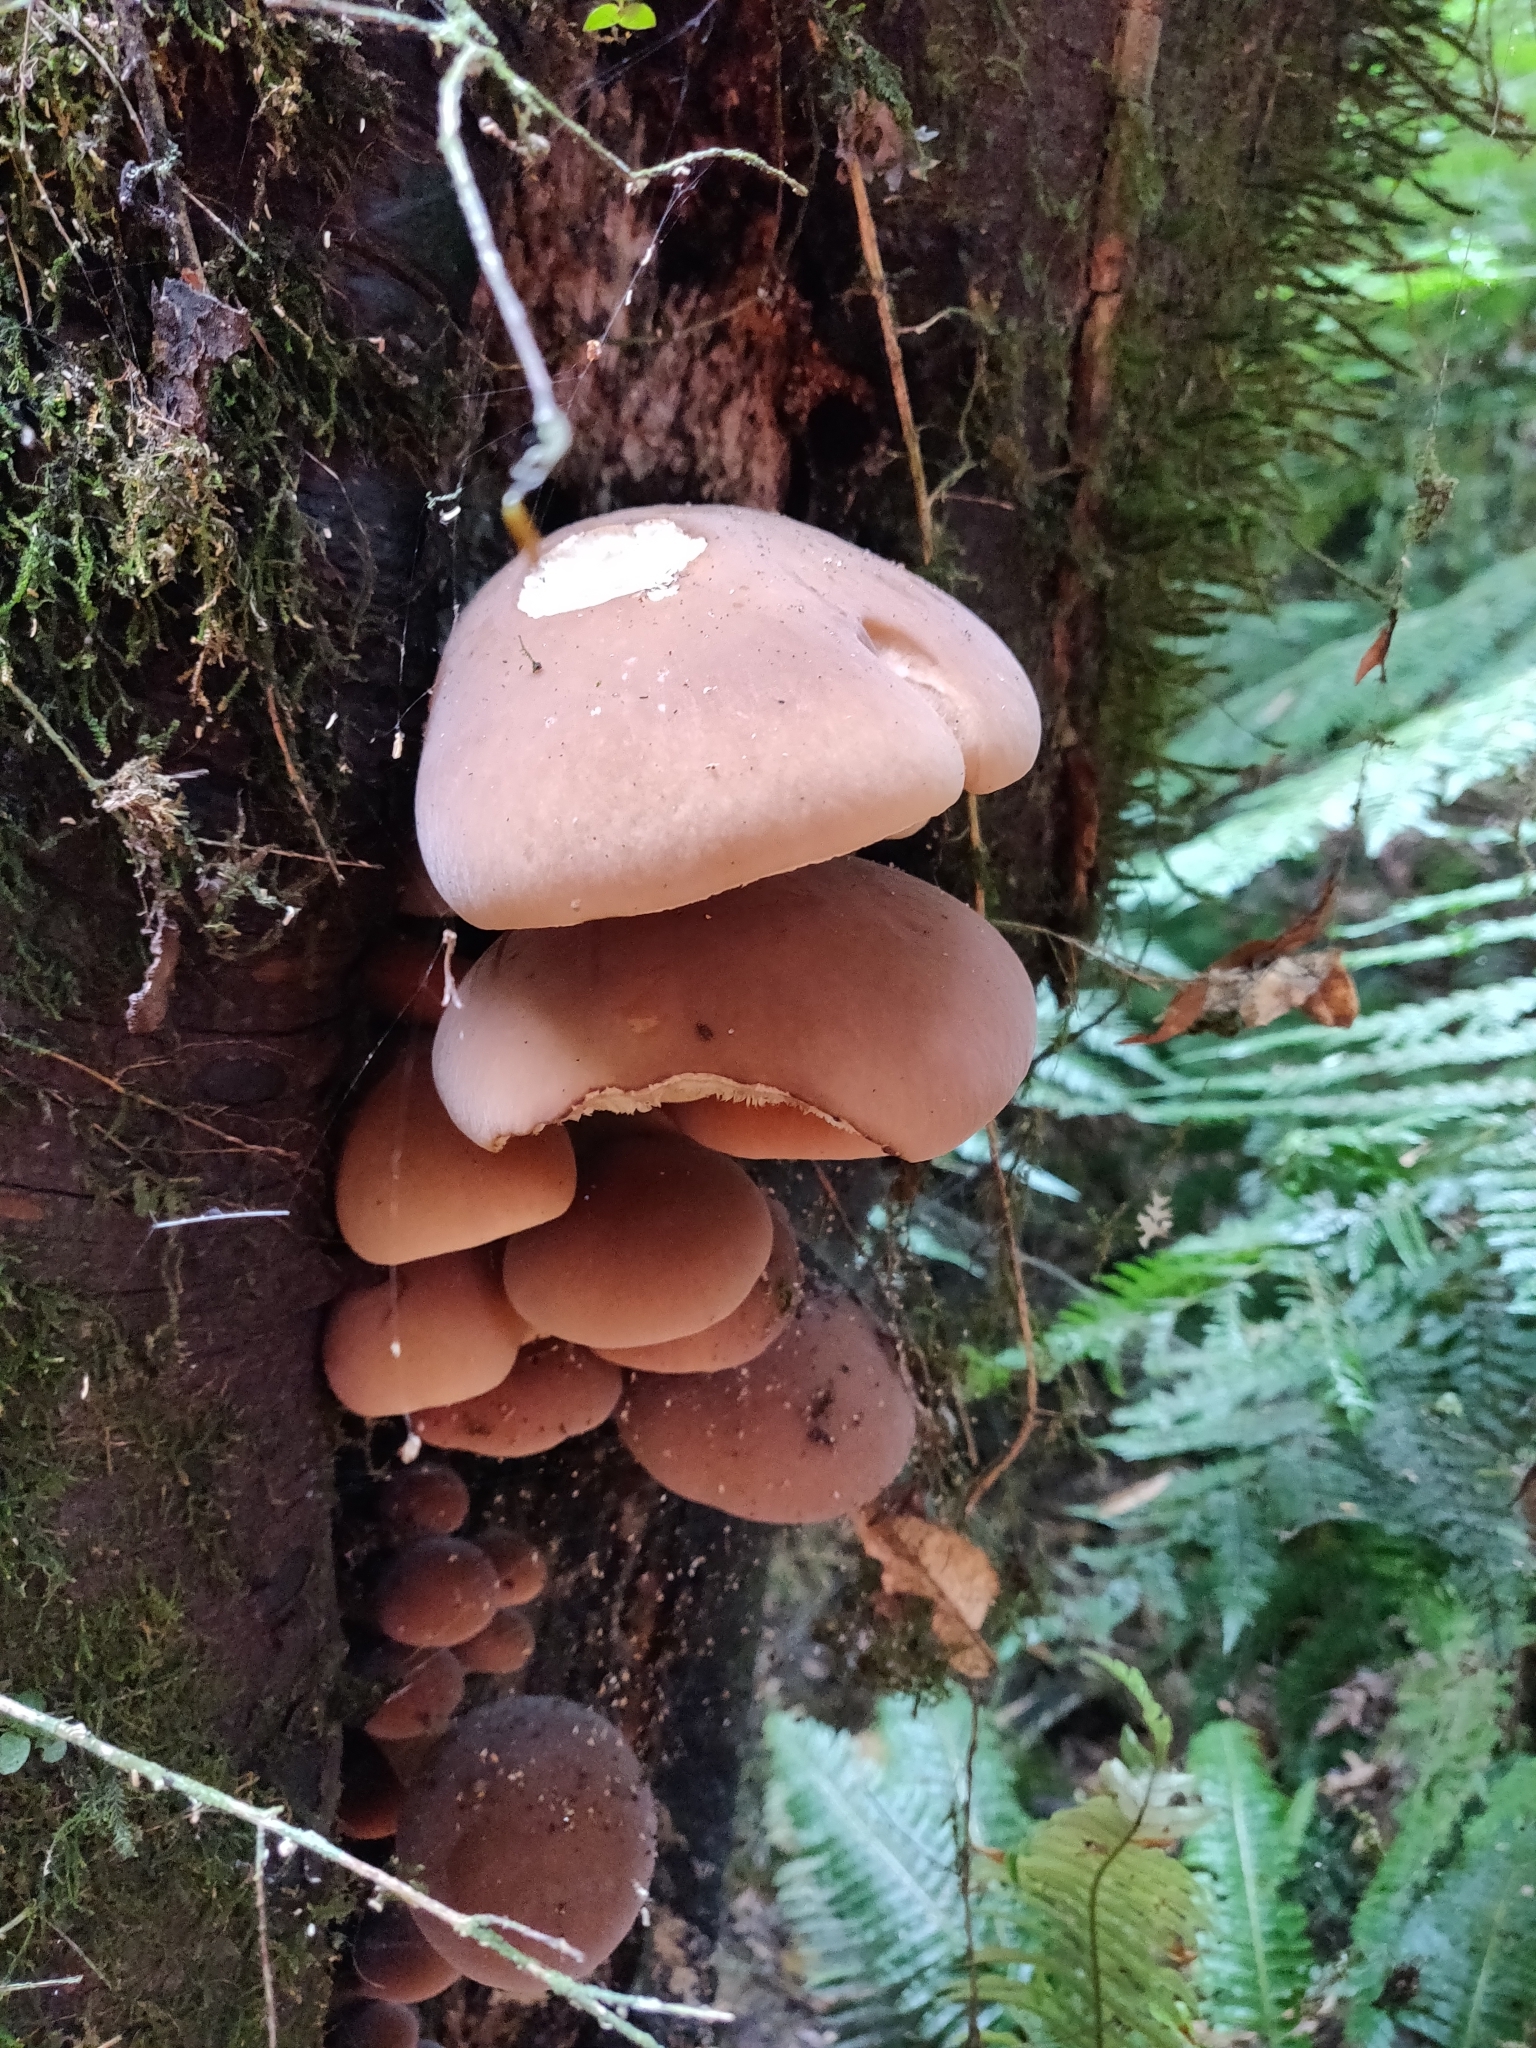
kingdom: Fungi
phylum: Basidiomycota
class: Agaricomycetes
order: Agaricales
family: Tubariaceae
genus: Cyclocybe
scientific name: Cyclocybe parasitica
